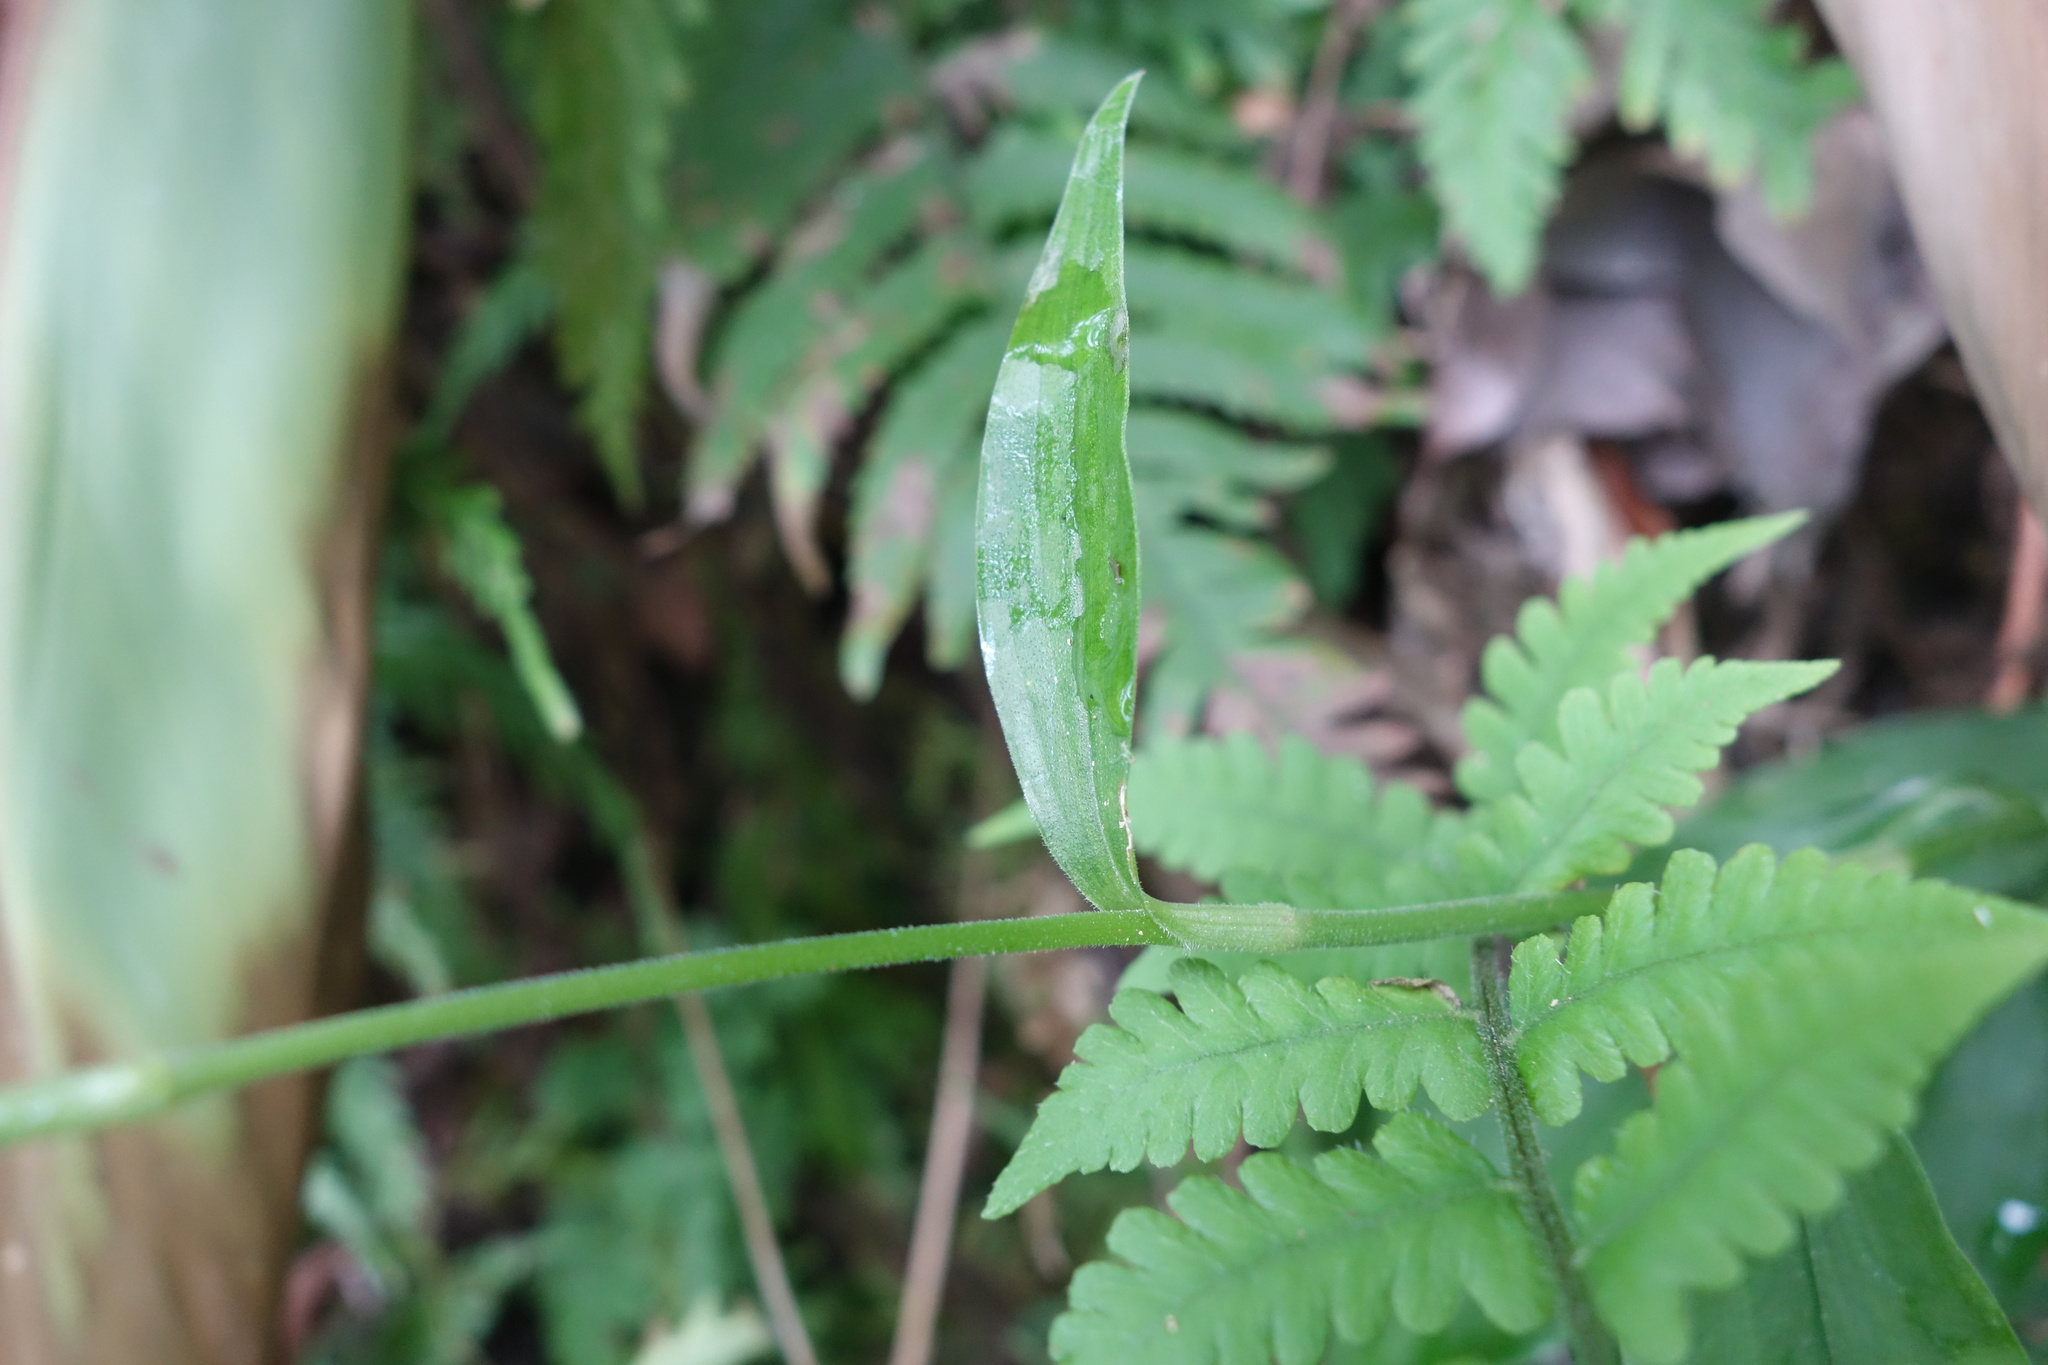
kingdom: Plantae
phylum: Tracheophyta
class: Liliopsida
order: Commelinales
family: Commelinaceae
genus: Rhopalephora
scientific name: Rhopalephora scaberrima
